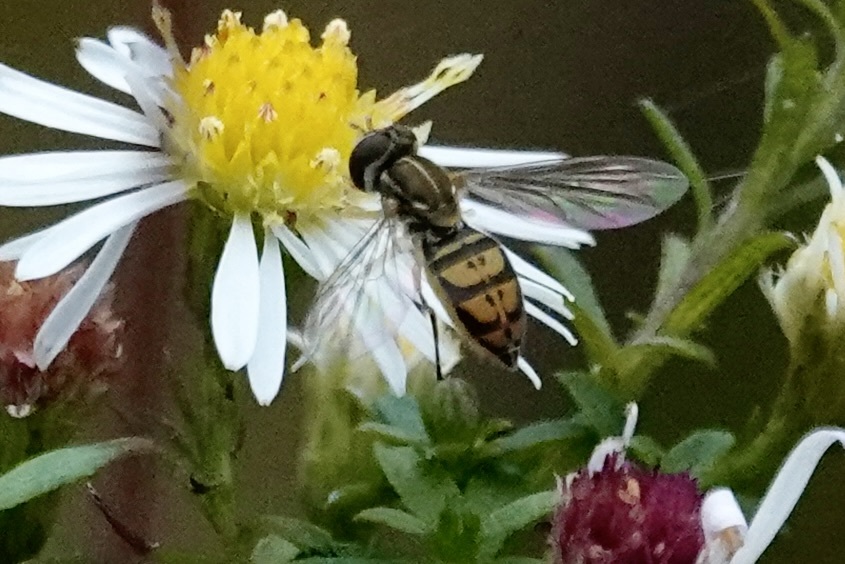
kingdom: Animalia
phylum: Arthropoda
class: Insecta
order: Diptera
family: Syrphidae
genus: Toxomerus
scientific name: Toxomerus marginatus
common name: Syrphid fly
